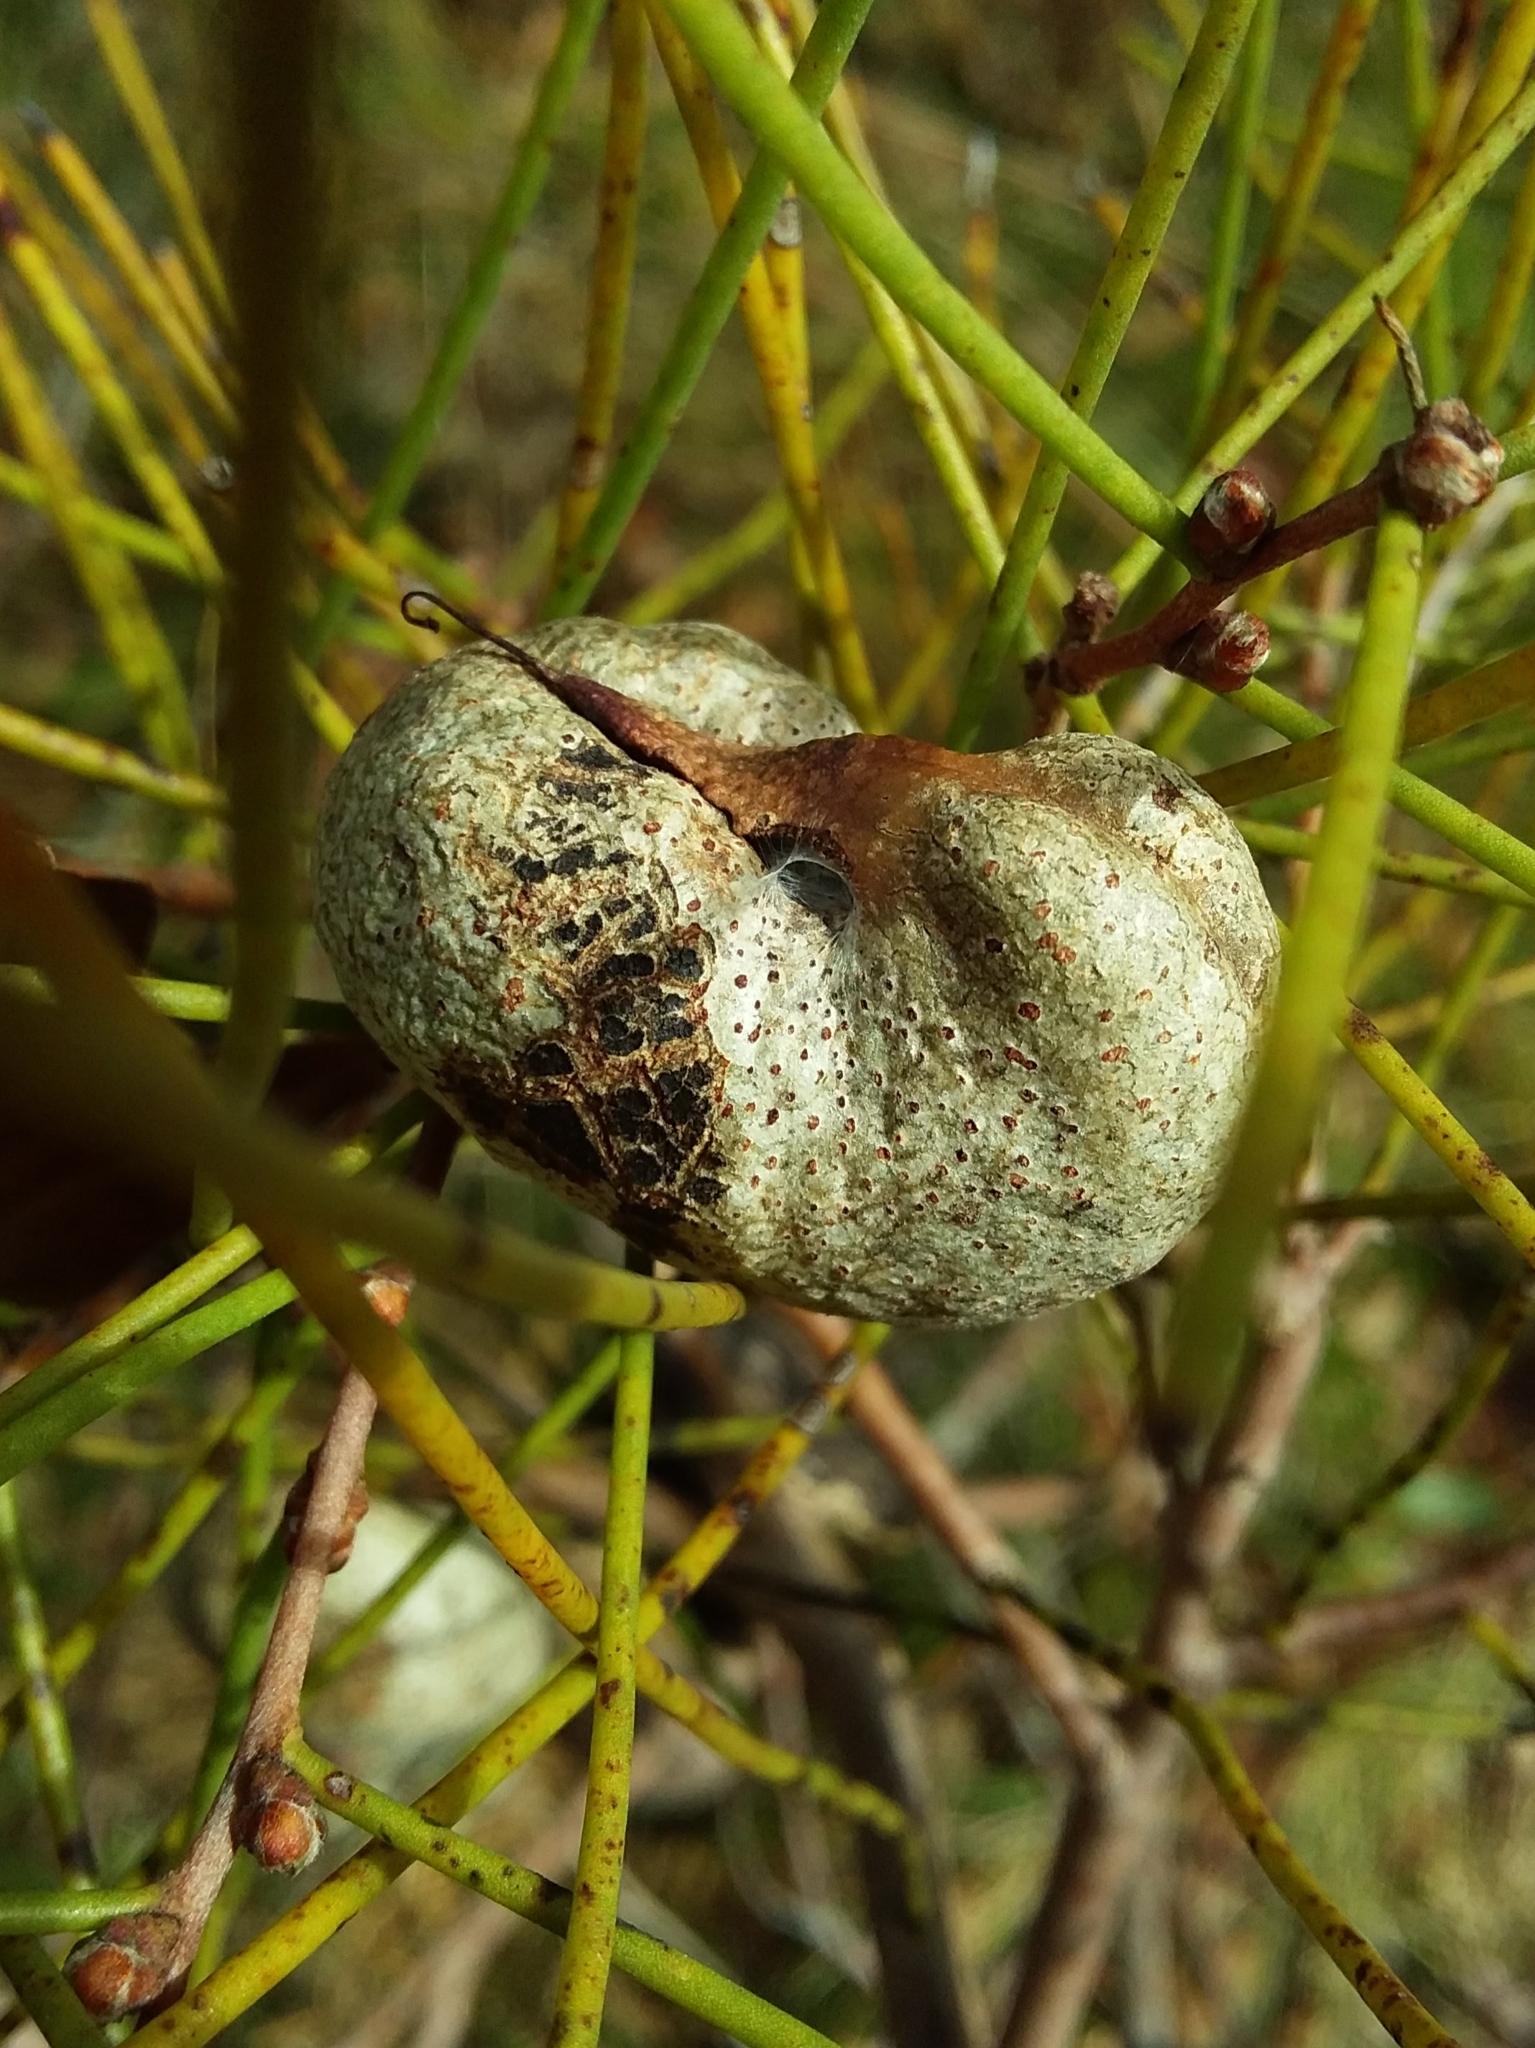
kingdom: Plantae
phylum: Tracheophyta
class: Magnoliopsida
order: Proteales
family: Proteaceae
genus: Hakea
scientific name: Hakea rostrata
